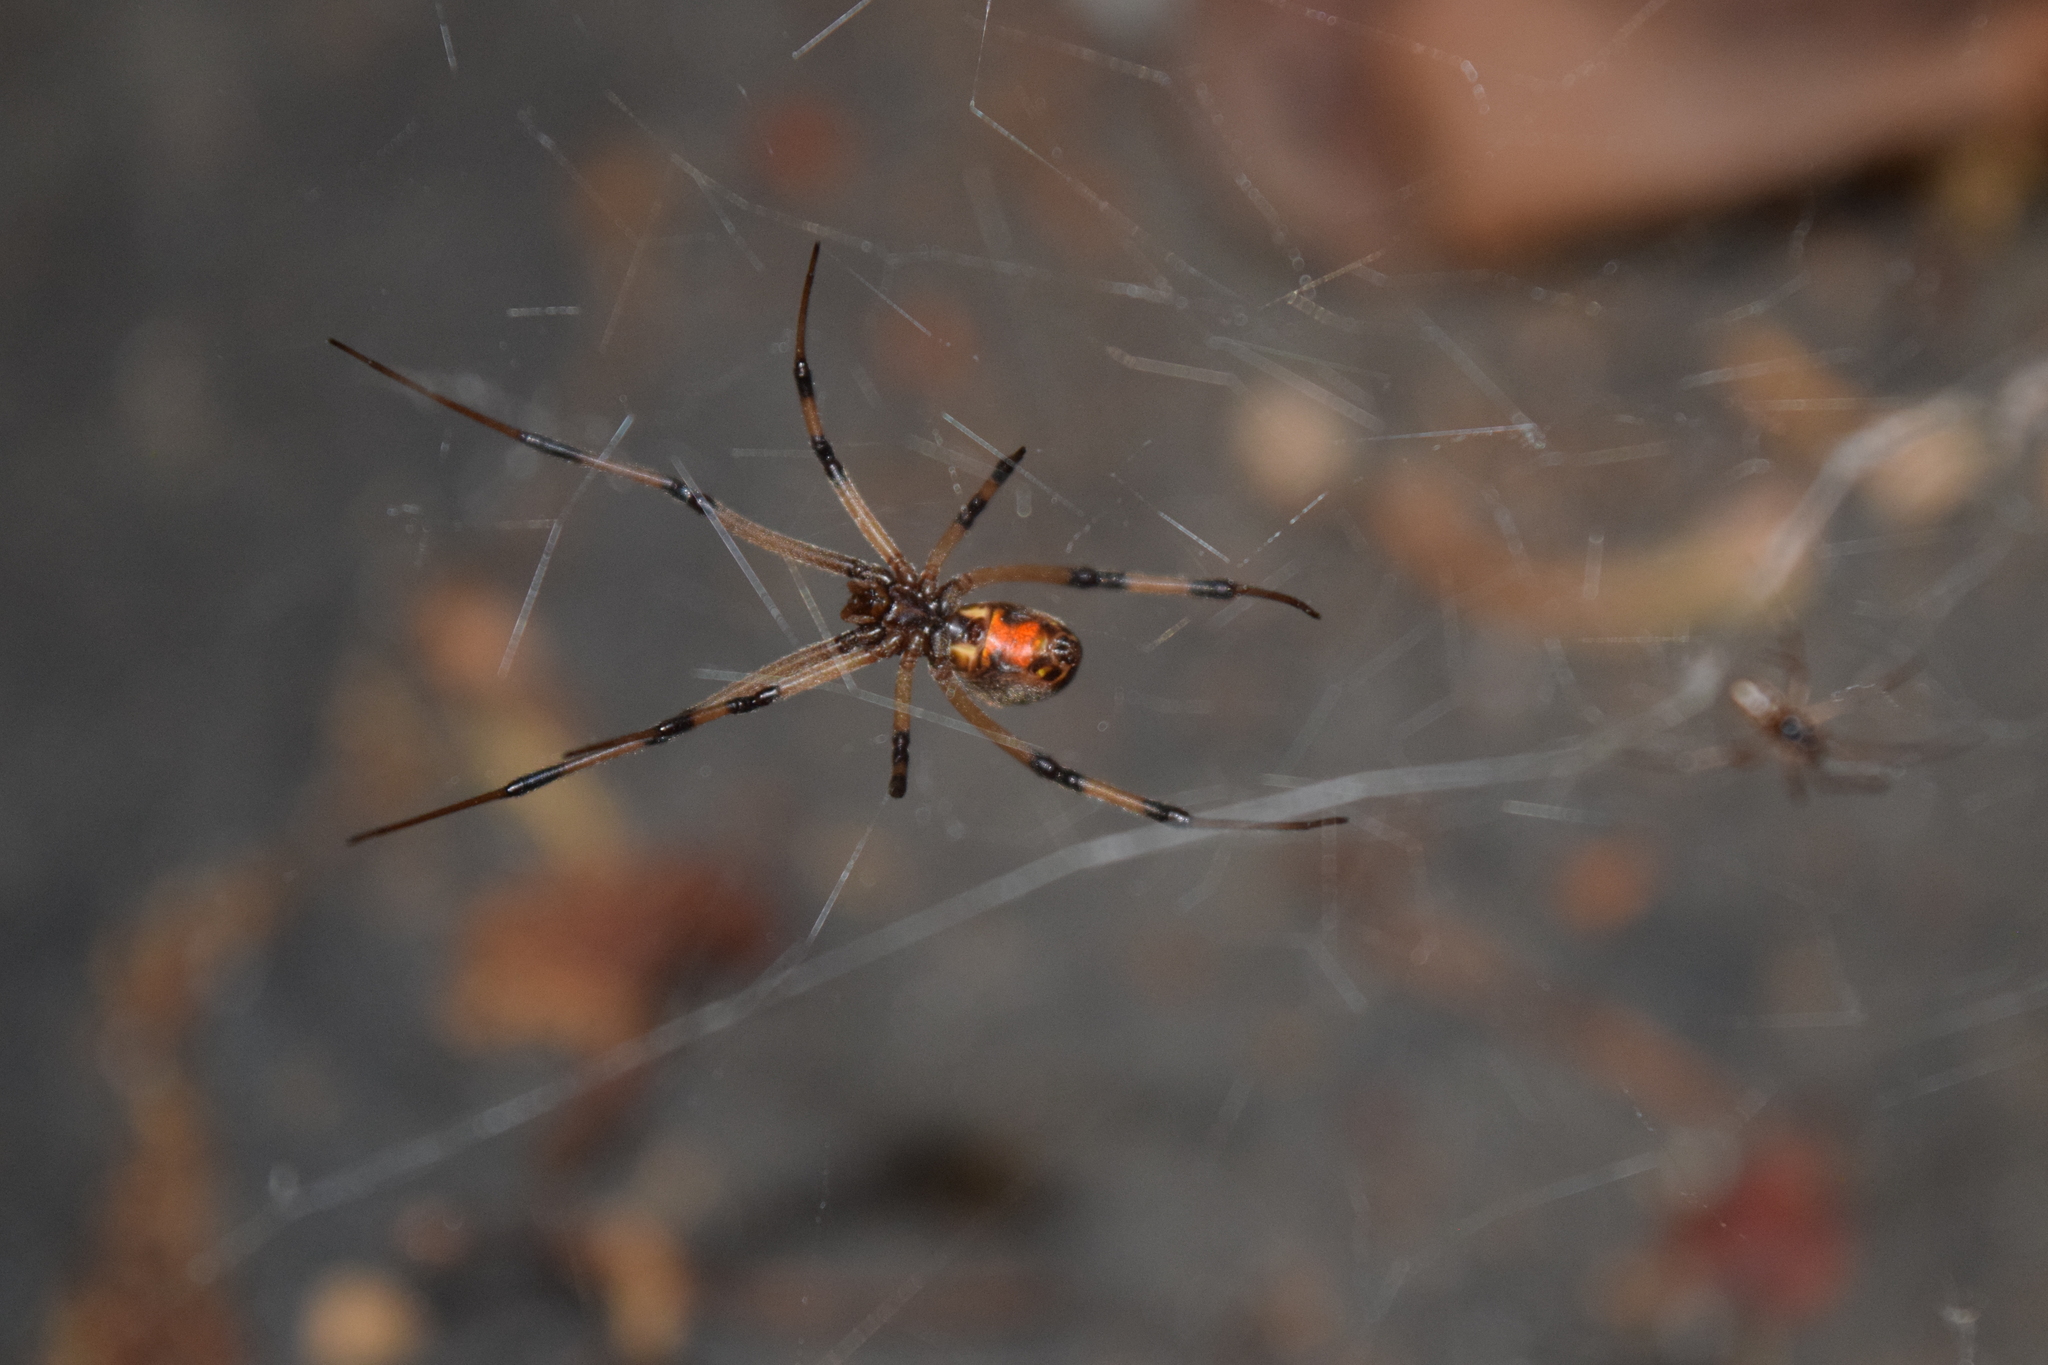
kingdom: Animalia
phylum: Arthropoda
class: Arachnida
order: Araneae
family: Theridiidae
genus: Latrodectus
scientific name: Latrodectus geometricus
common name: Brown widow spider
